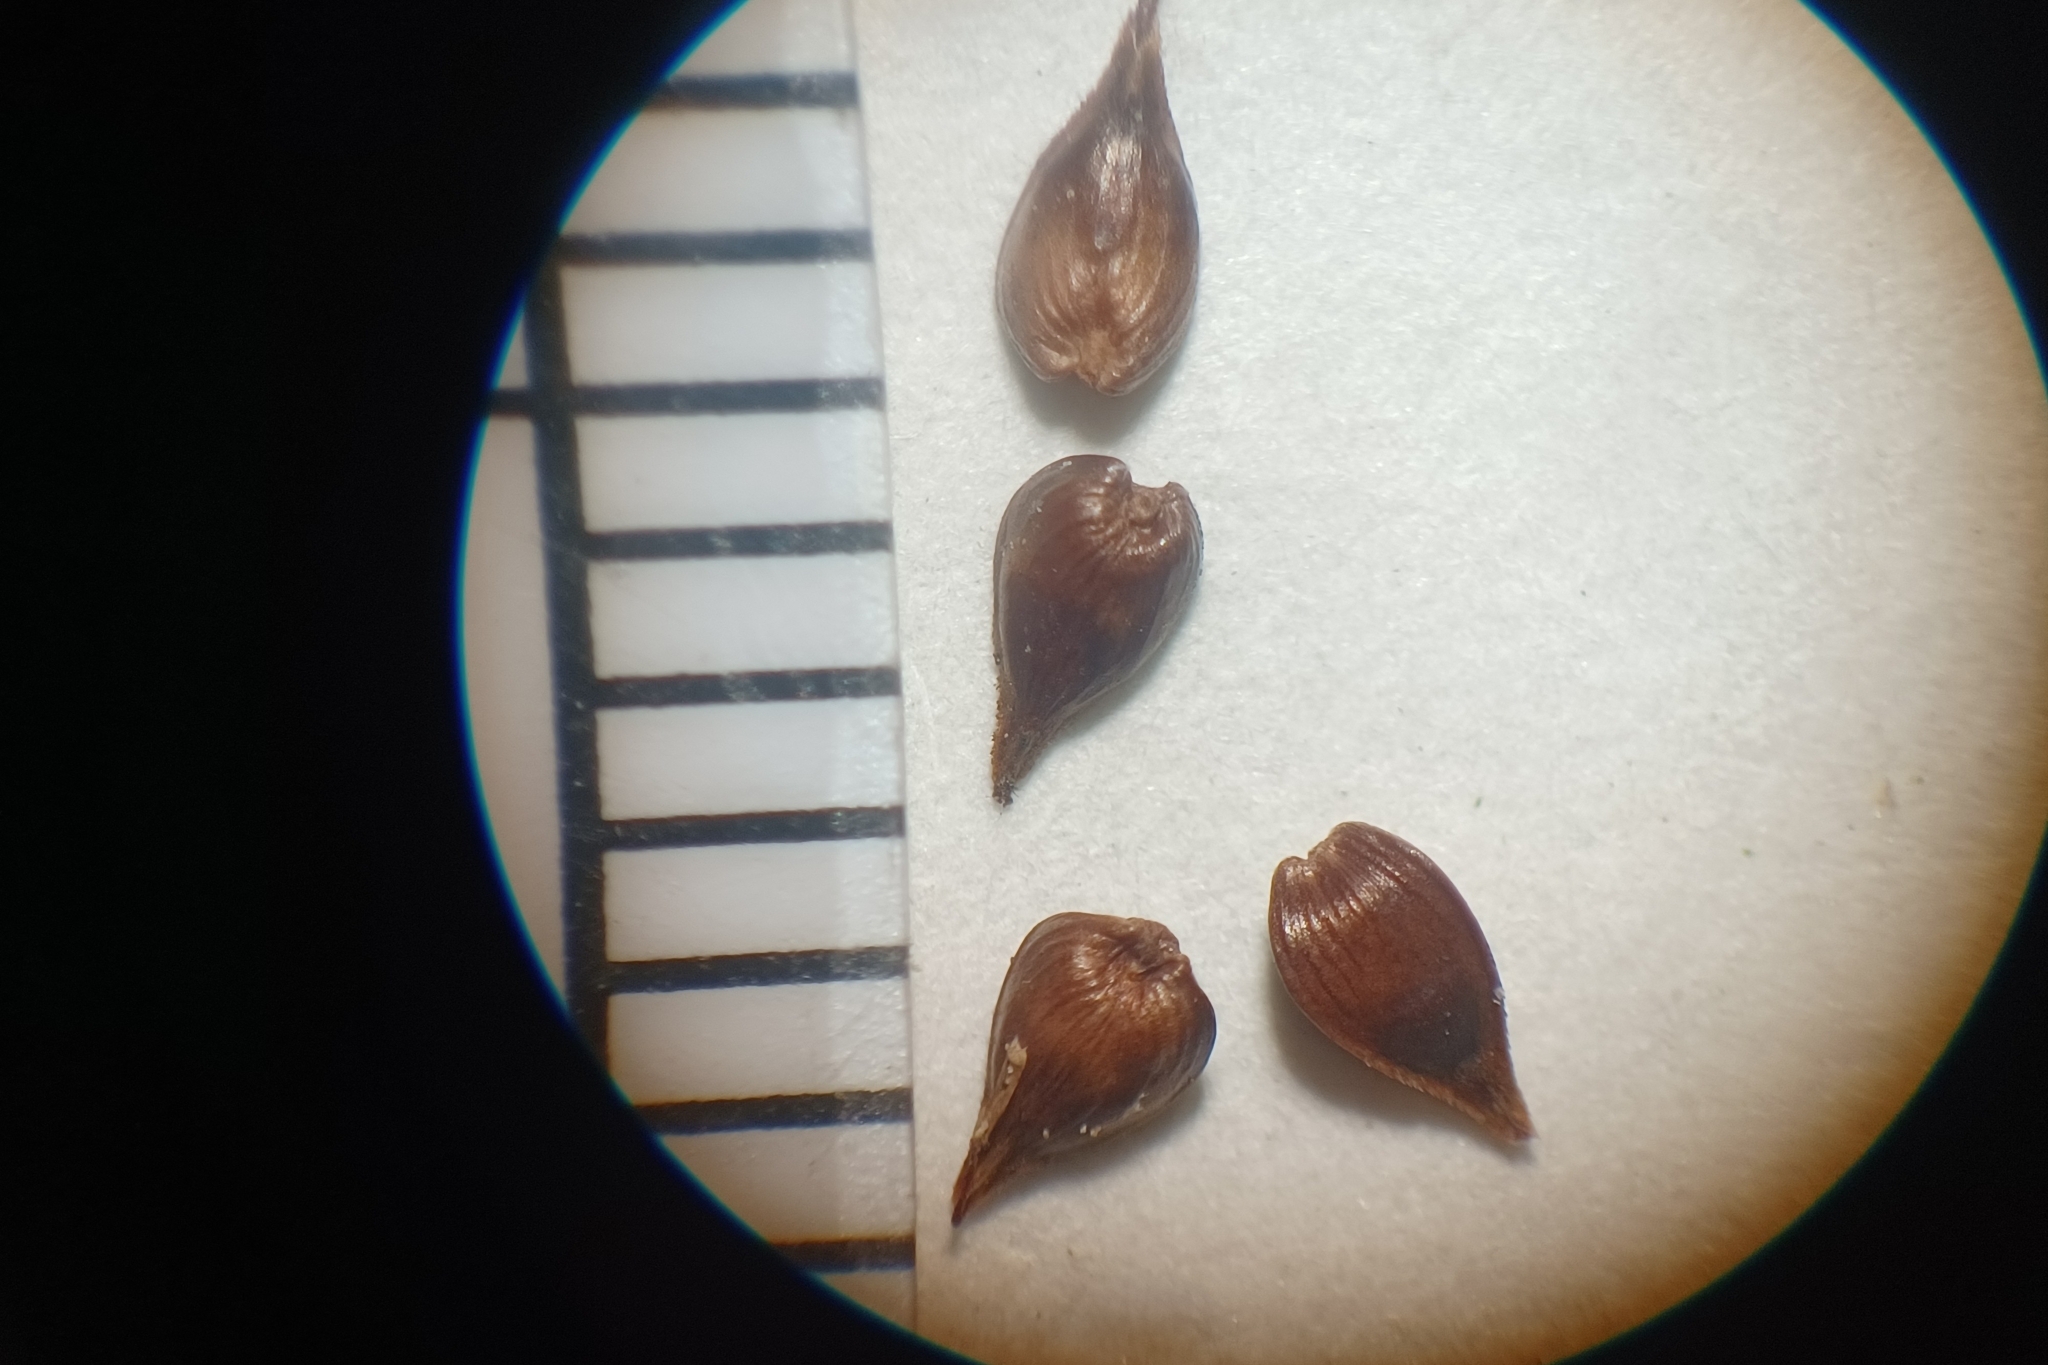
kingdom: Plantae
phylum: Tracheophyta
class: Liliopsida
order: Poales
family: Cyperaceae
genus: Carex
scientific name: Carex interior
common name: Inland sedge
